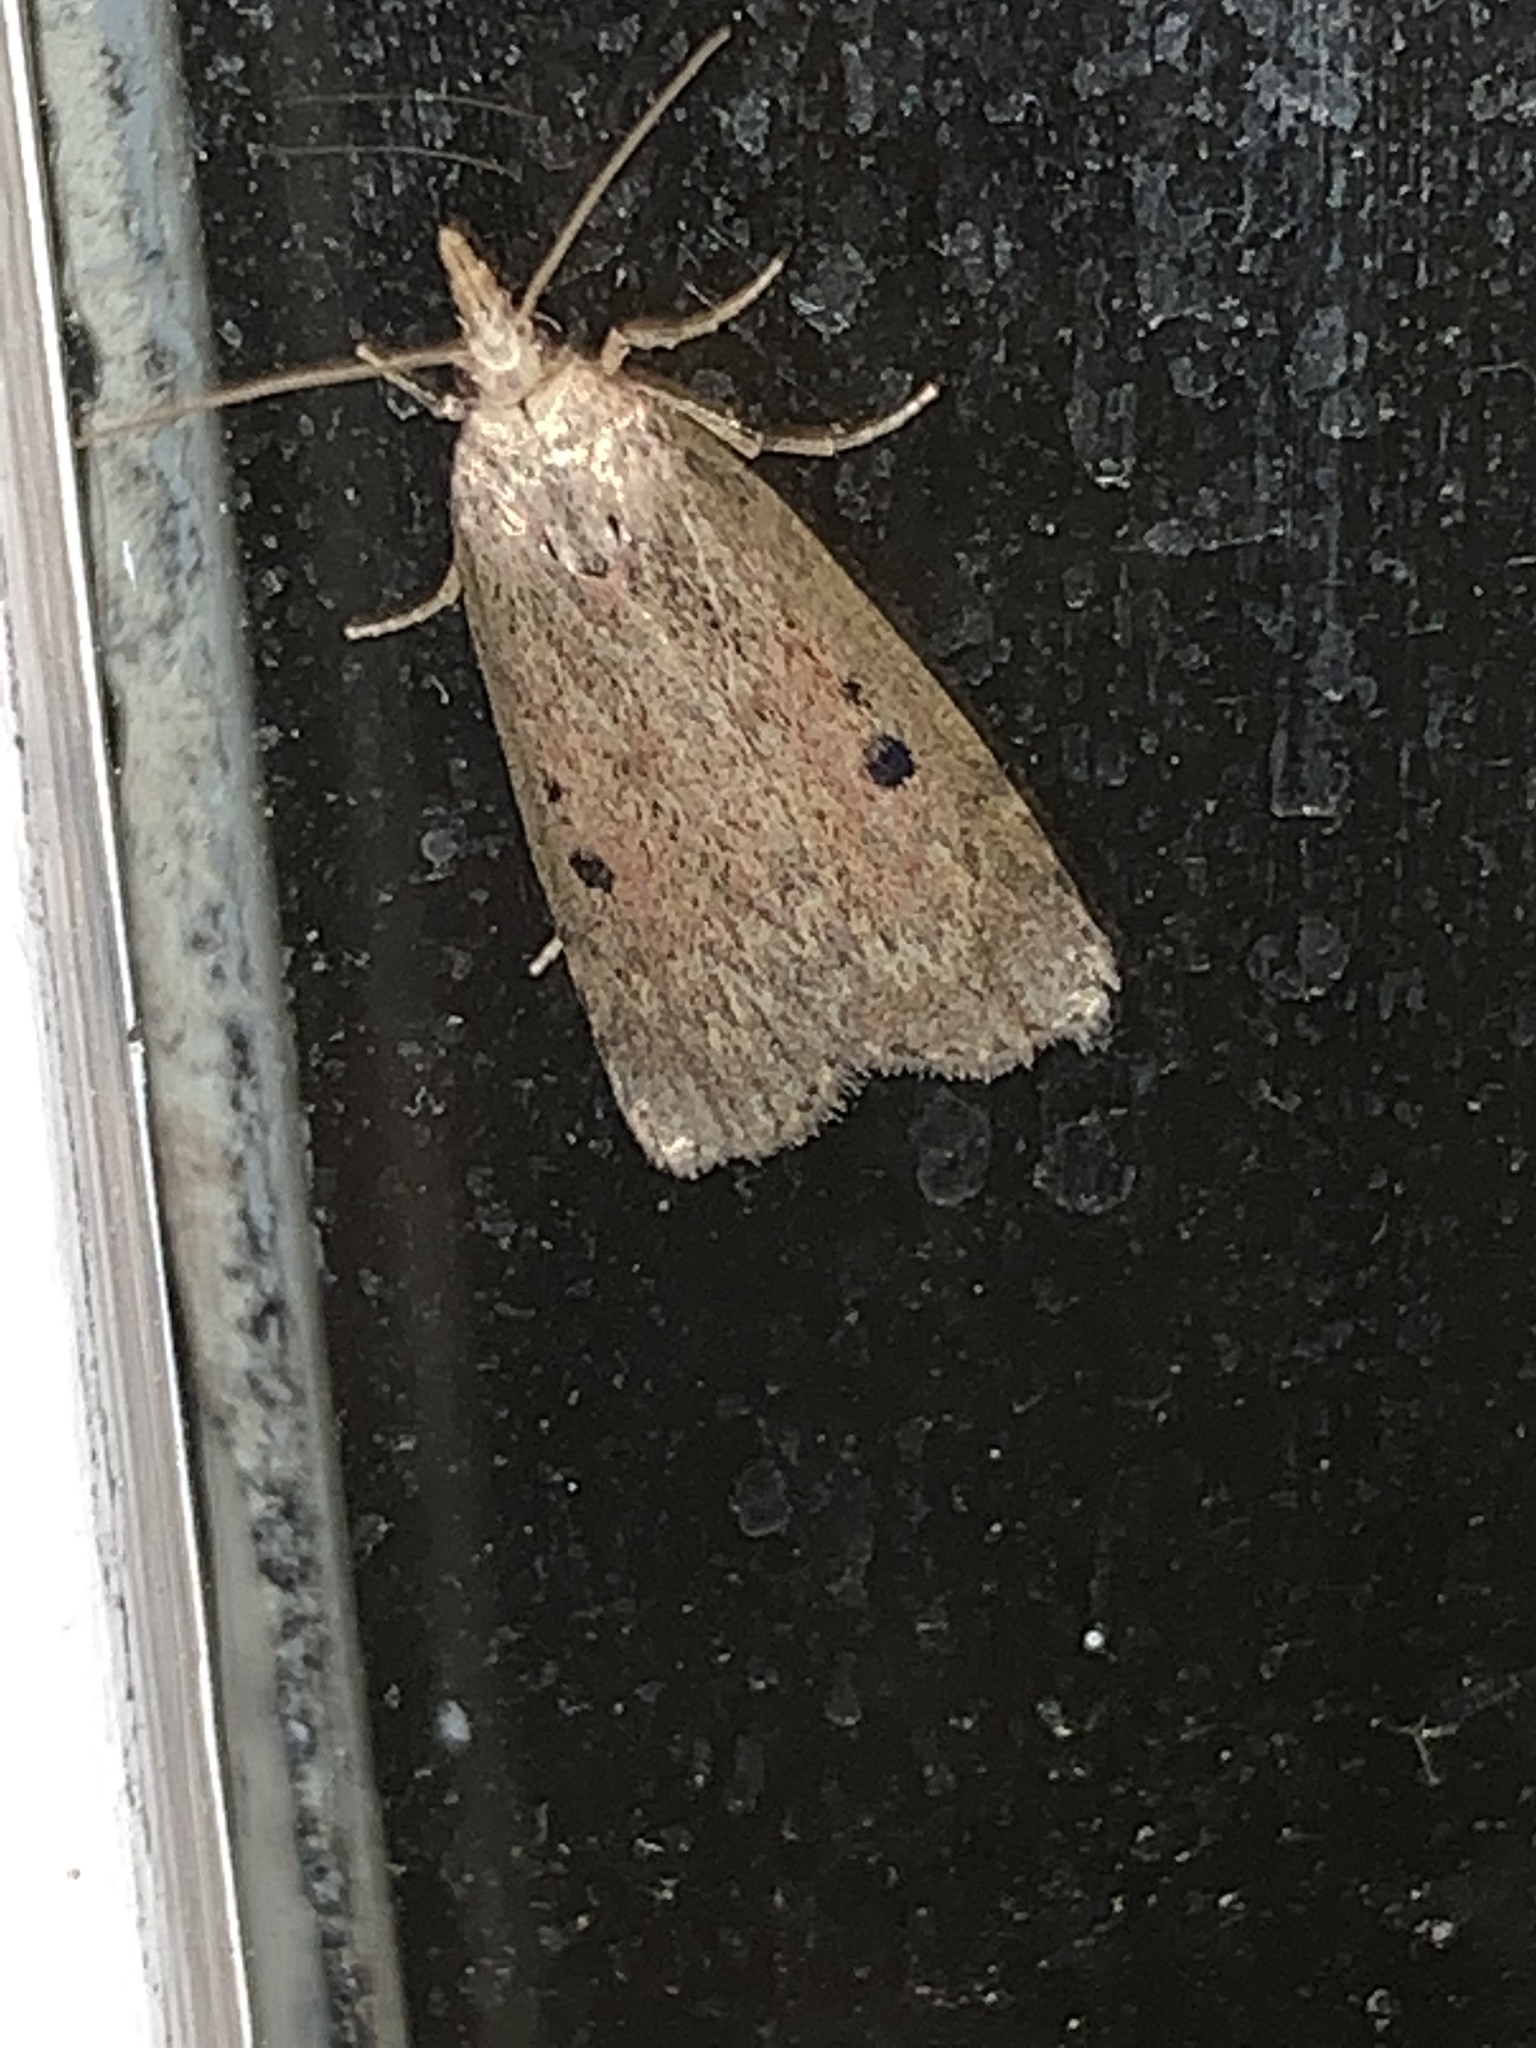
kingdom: Animalia
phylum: Arthropoda
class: Insecta
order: Lepidoptera
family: Pyralidae
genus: Aphomia
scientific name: Aphomia sociella
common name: Bee moth
